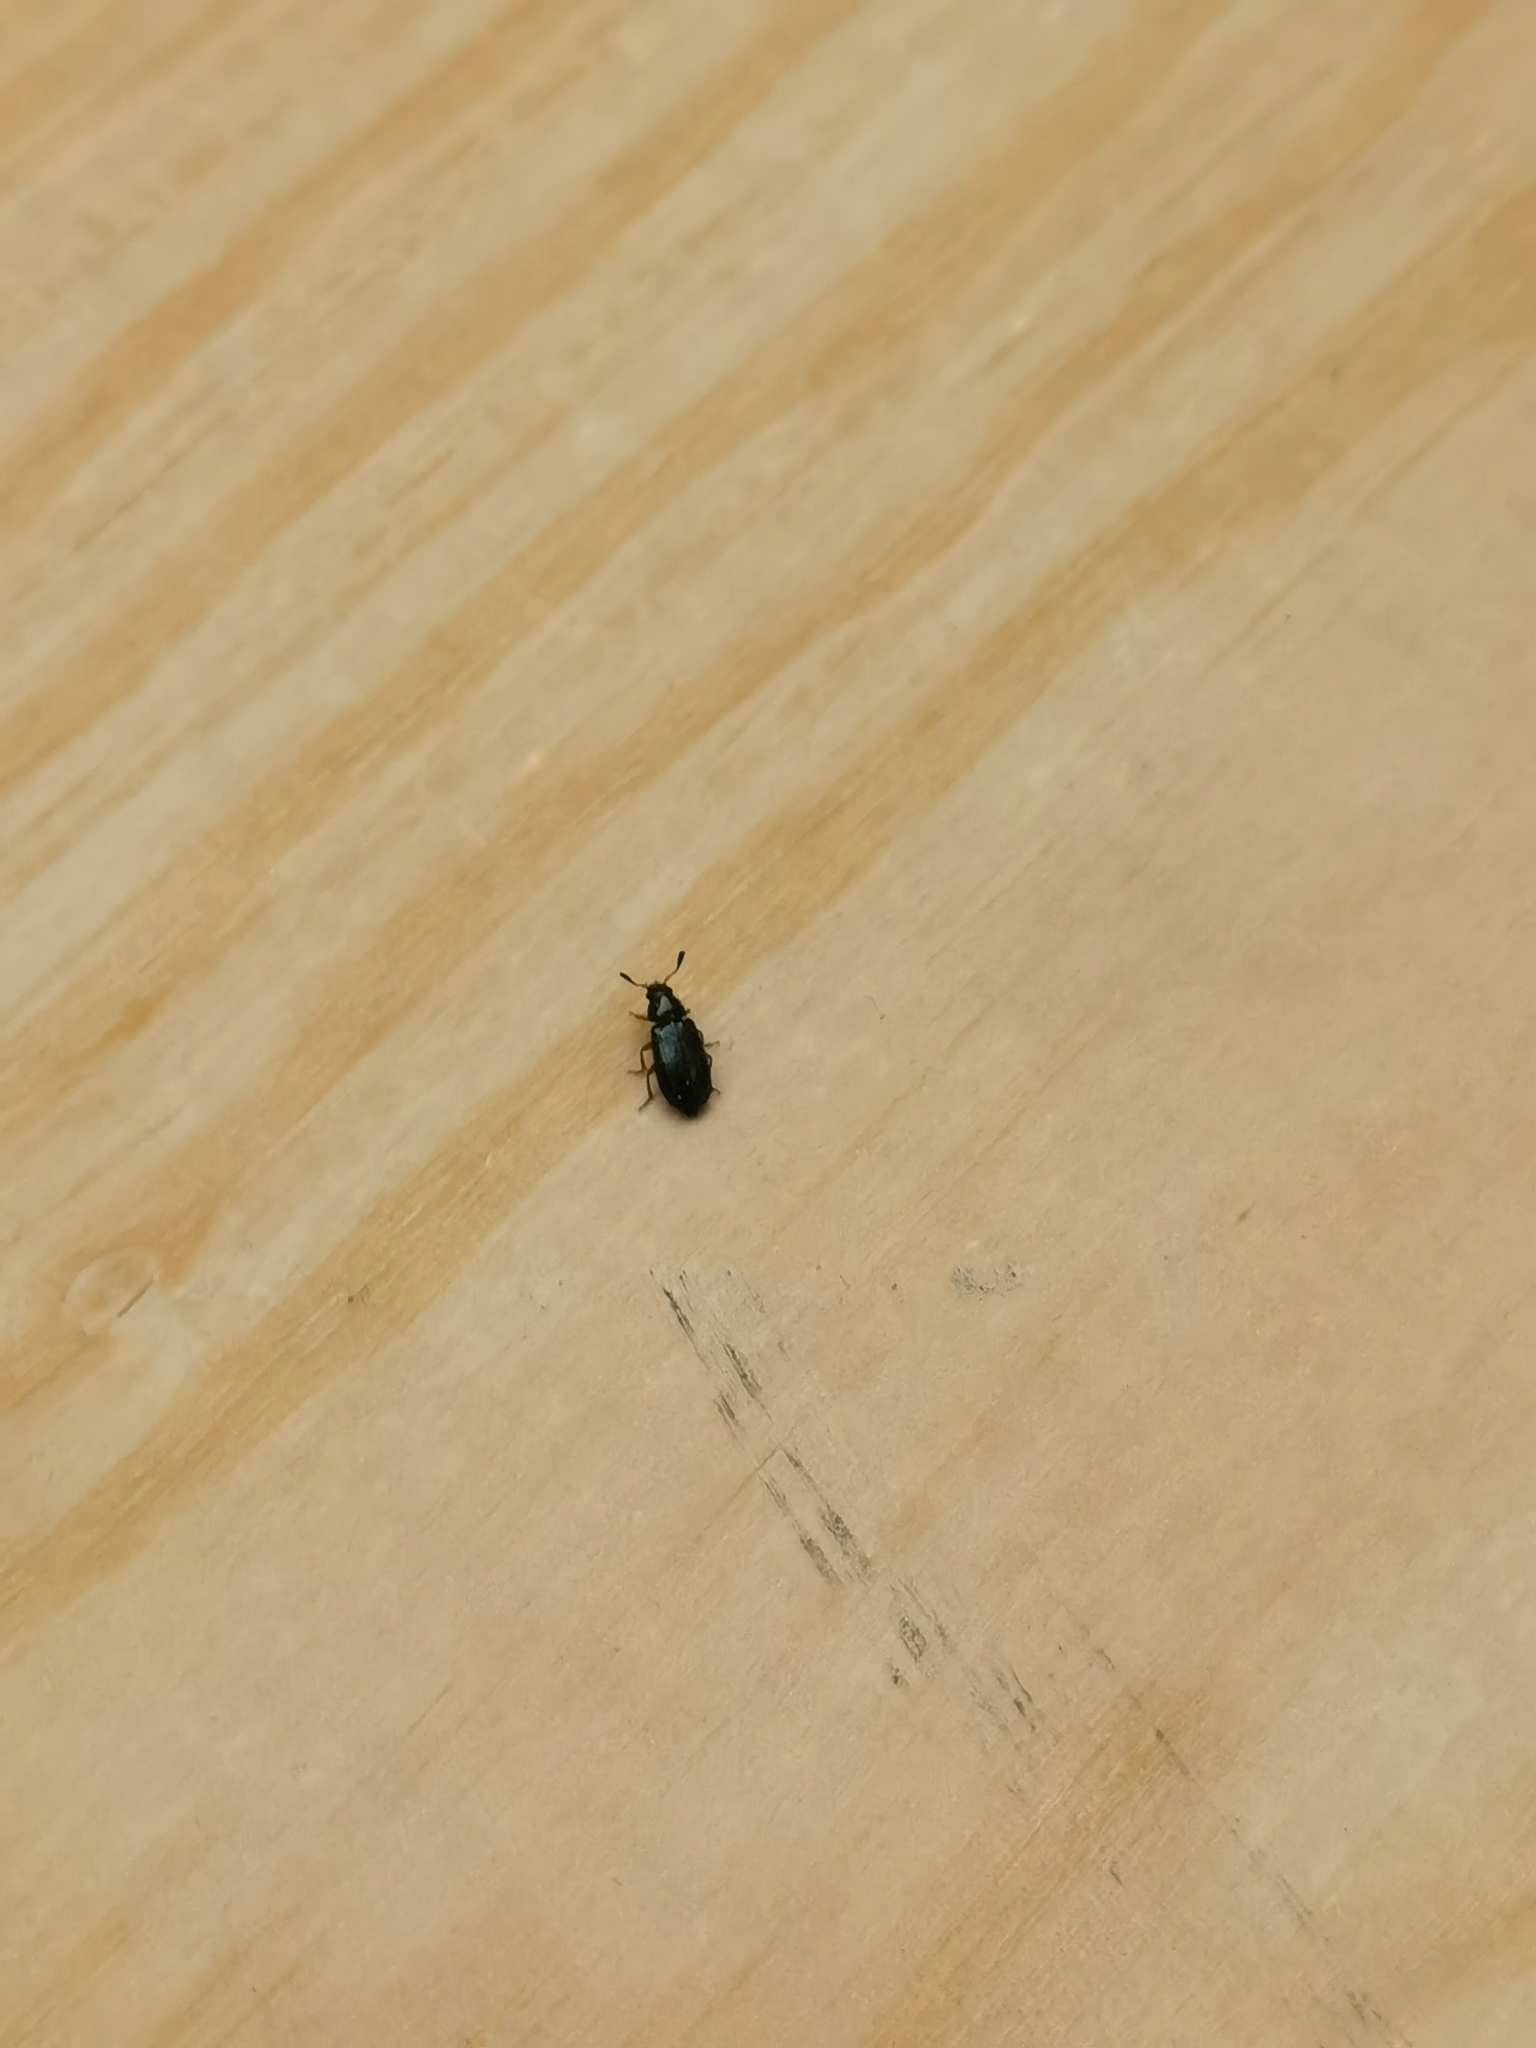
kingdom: Animalia
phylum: Arthropoda
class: Insecta
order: Coleoptera
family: Cleridae
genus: Necrobia
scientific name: Necrobia rufipes
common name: Red-legged ham beetle
